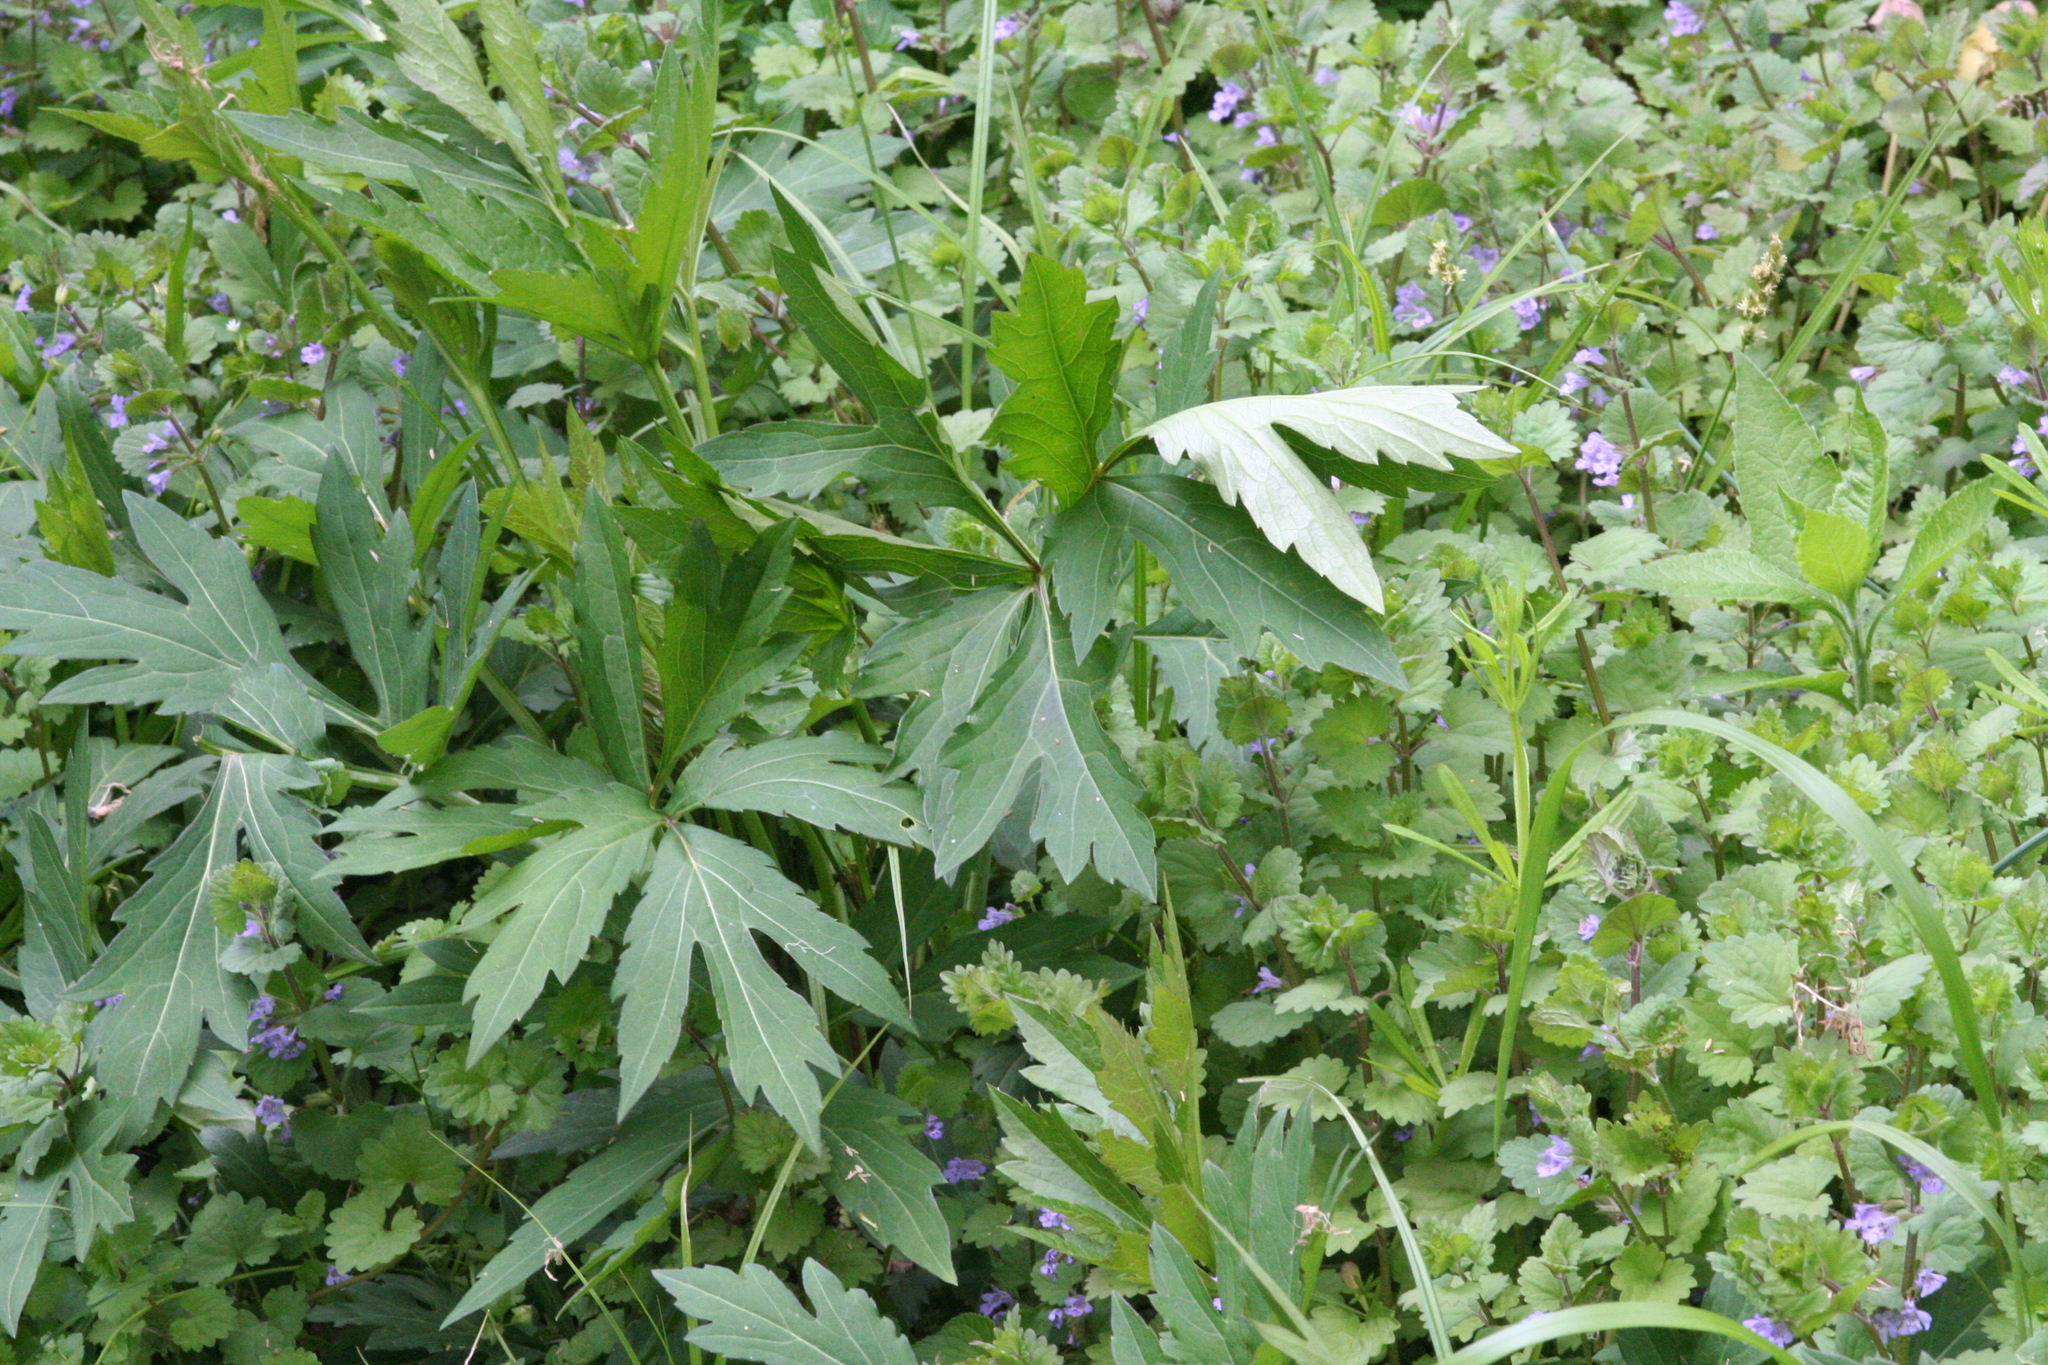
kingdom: Plantae
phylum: Tracheophyta
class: Magnoliopsida
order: Asterales
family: Asteraceae
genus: Rudbeckia
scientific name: Rudbeckia laciniata
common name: Coneflower
